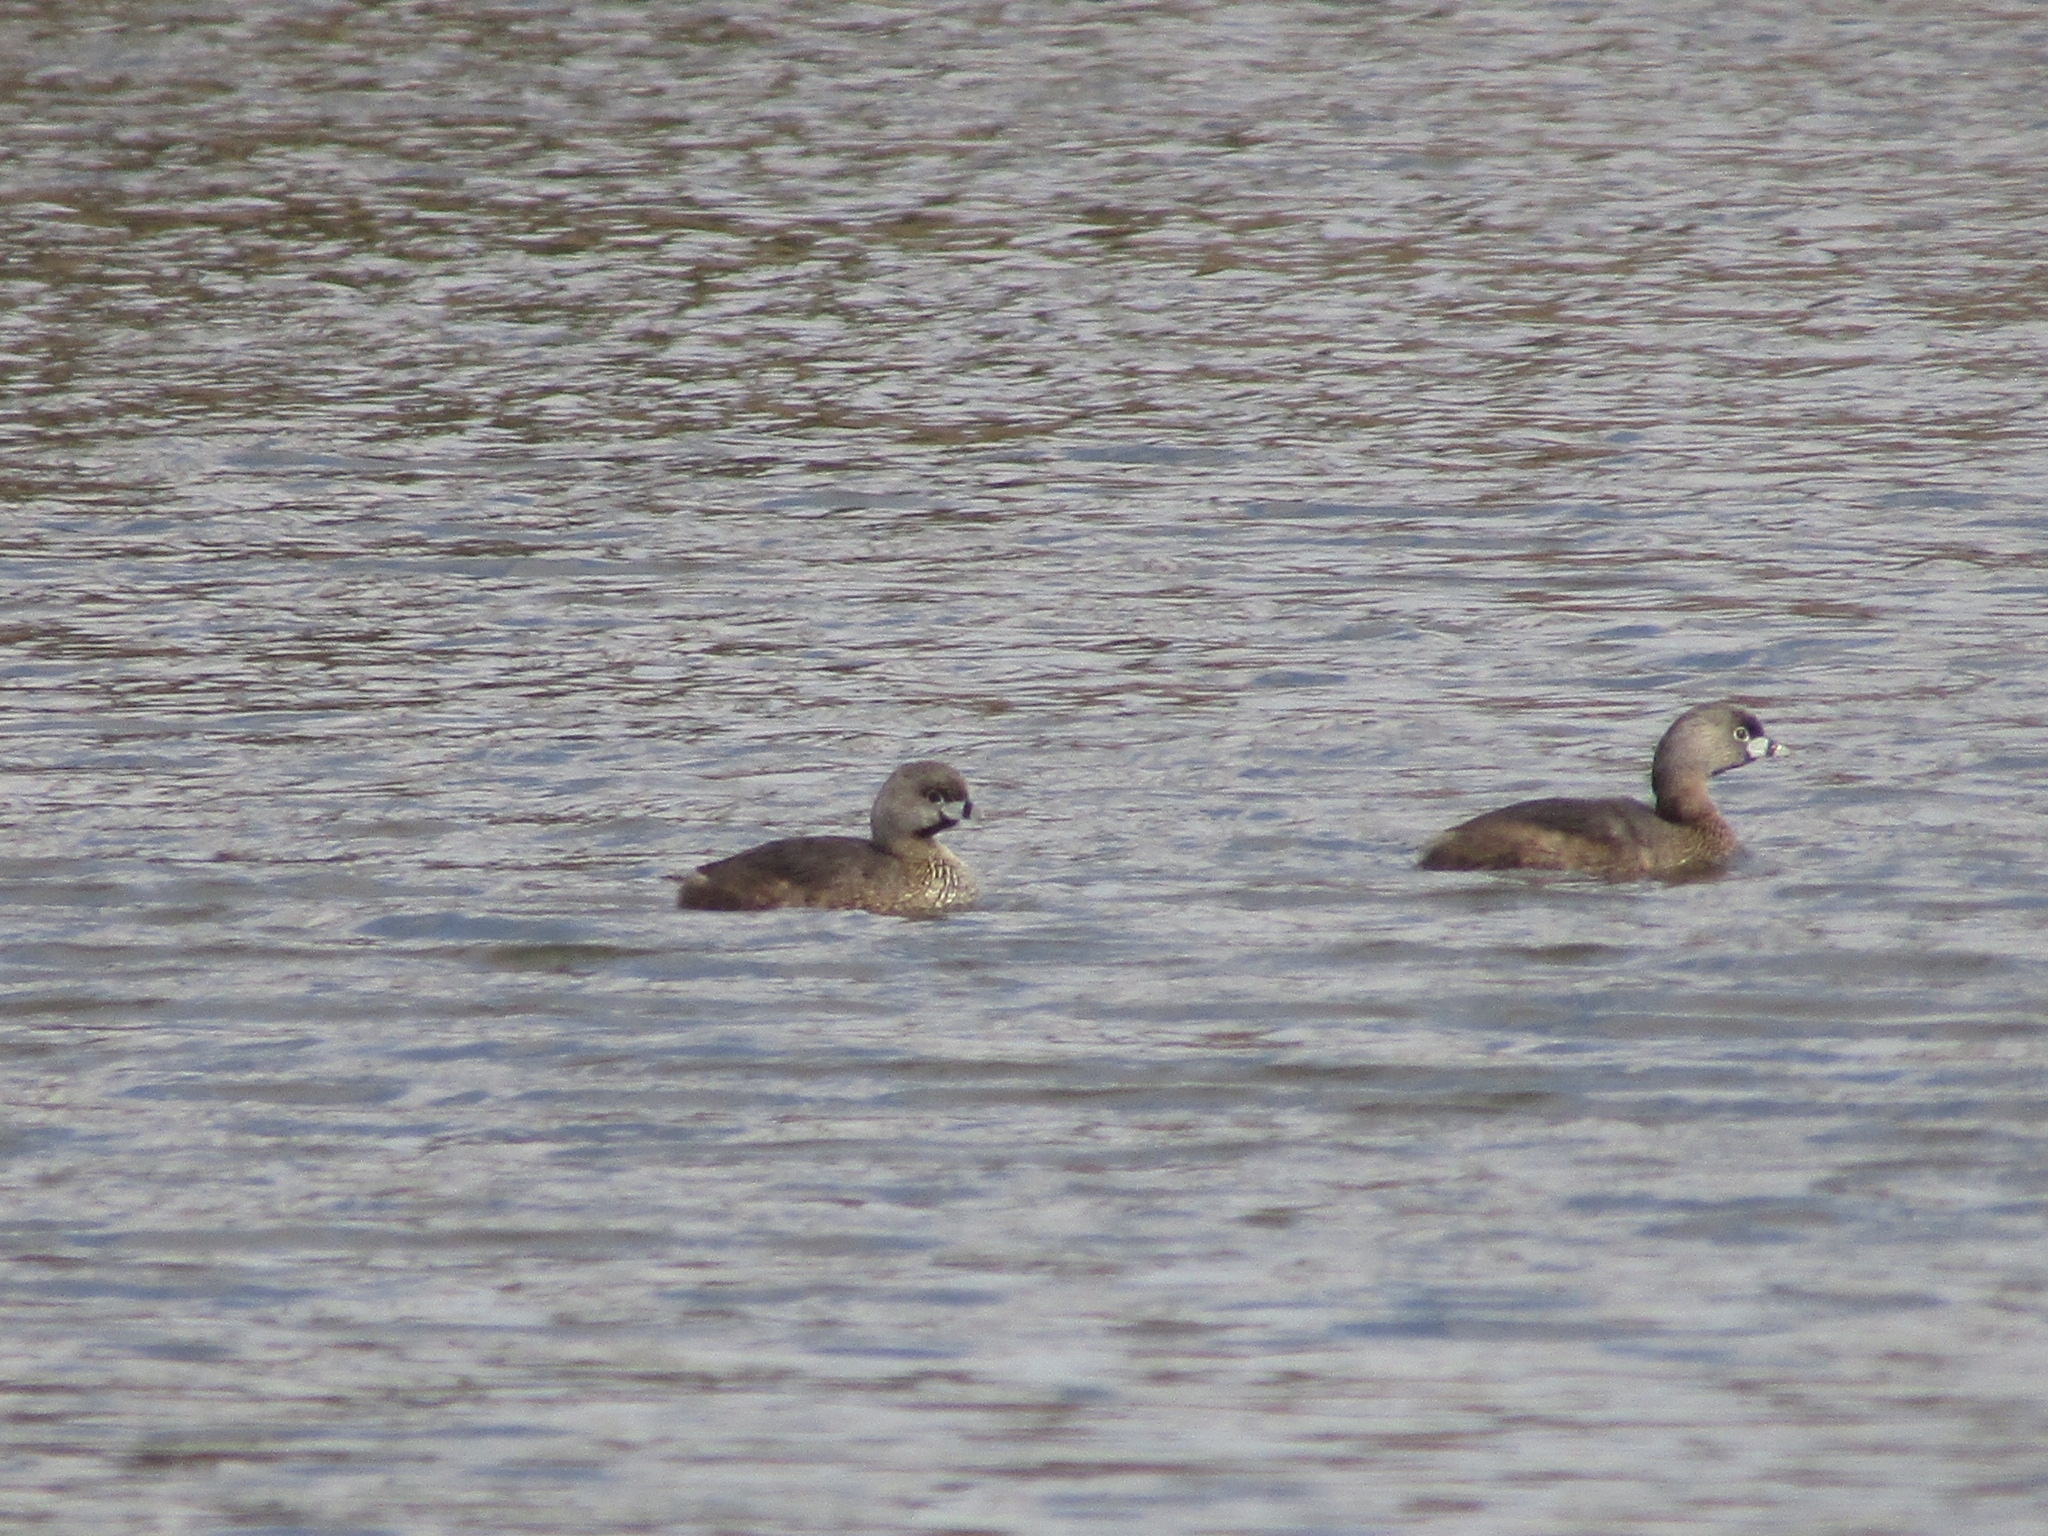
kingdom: Animalia
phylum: Chordata
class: Aves
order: Podicipediformes
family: Podicipedidae
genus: Podilymbus
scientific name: Podilymbus podiceps
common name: Pied-billed grebe
